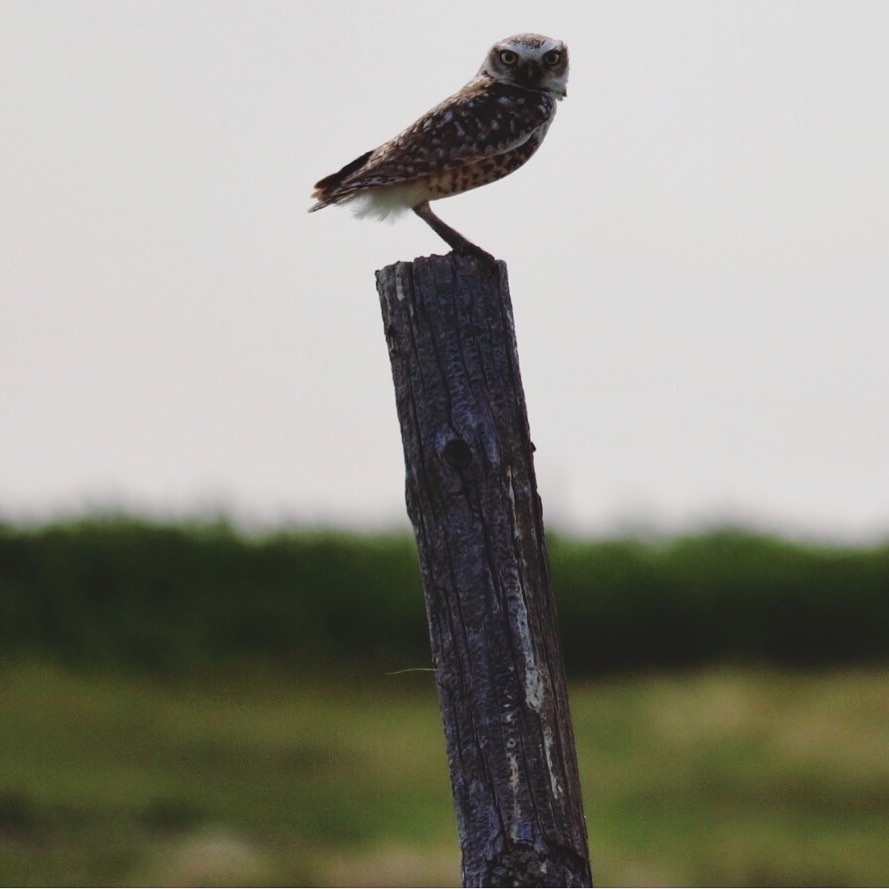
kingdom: Animalia
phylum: Chordata
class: Aves
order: Strigiformes
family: Strigidae
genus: Athene
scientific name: Athene cunicularia
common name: Burrowing owl
